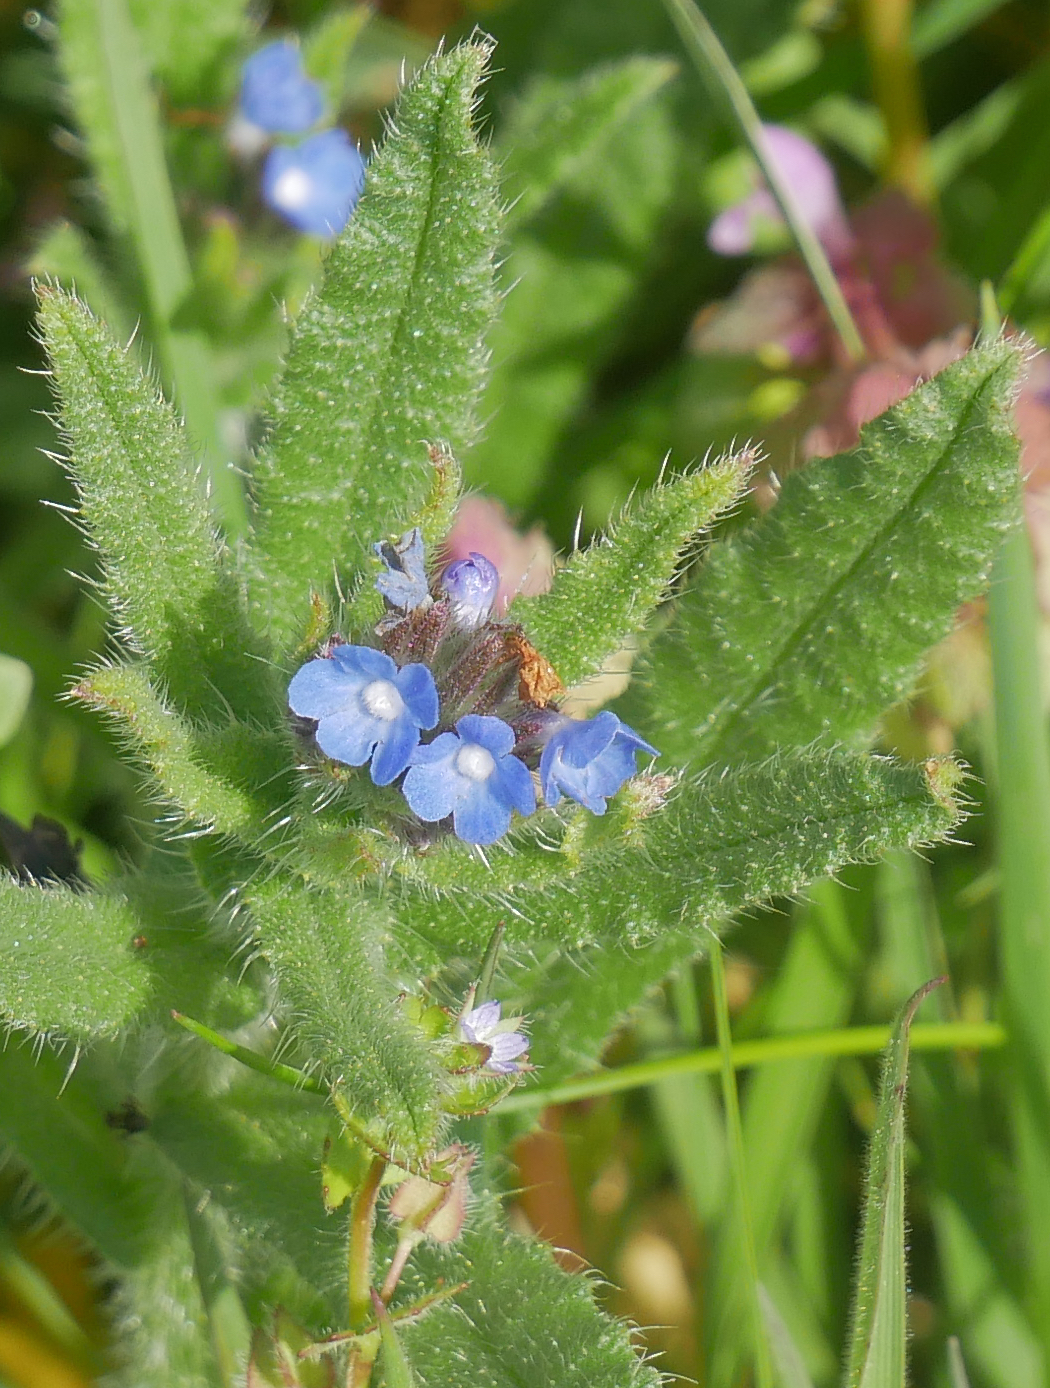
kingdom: Plantae
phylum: Tracheophyta
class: Magnoliopsida
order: Boraginales
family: Boraginaceae
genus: Lycopsis
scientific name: Lycopsis arvensis
